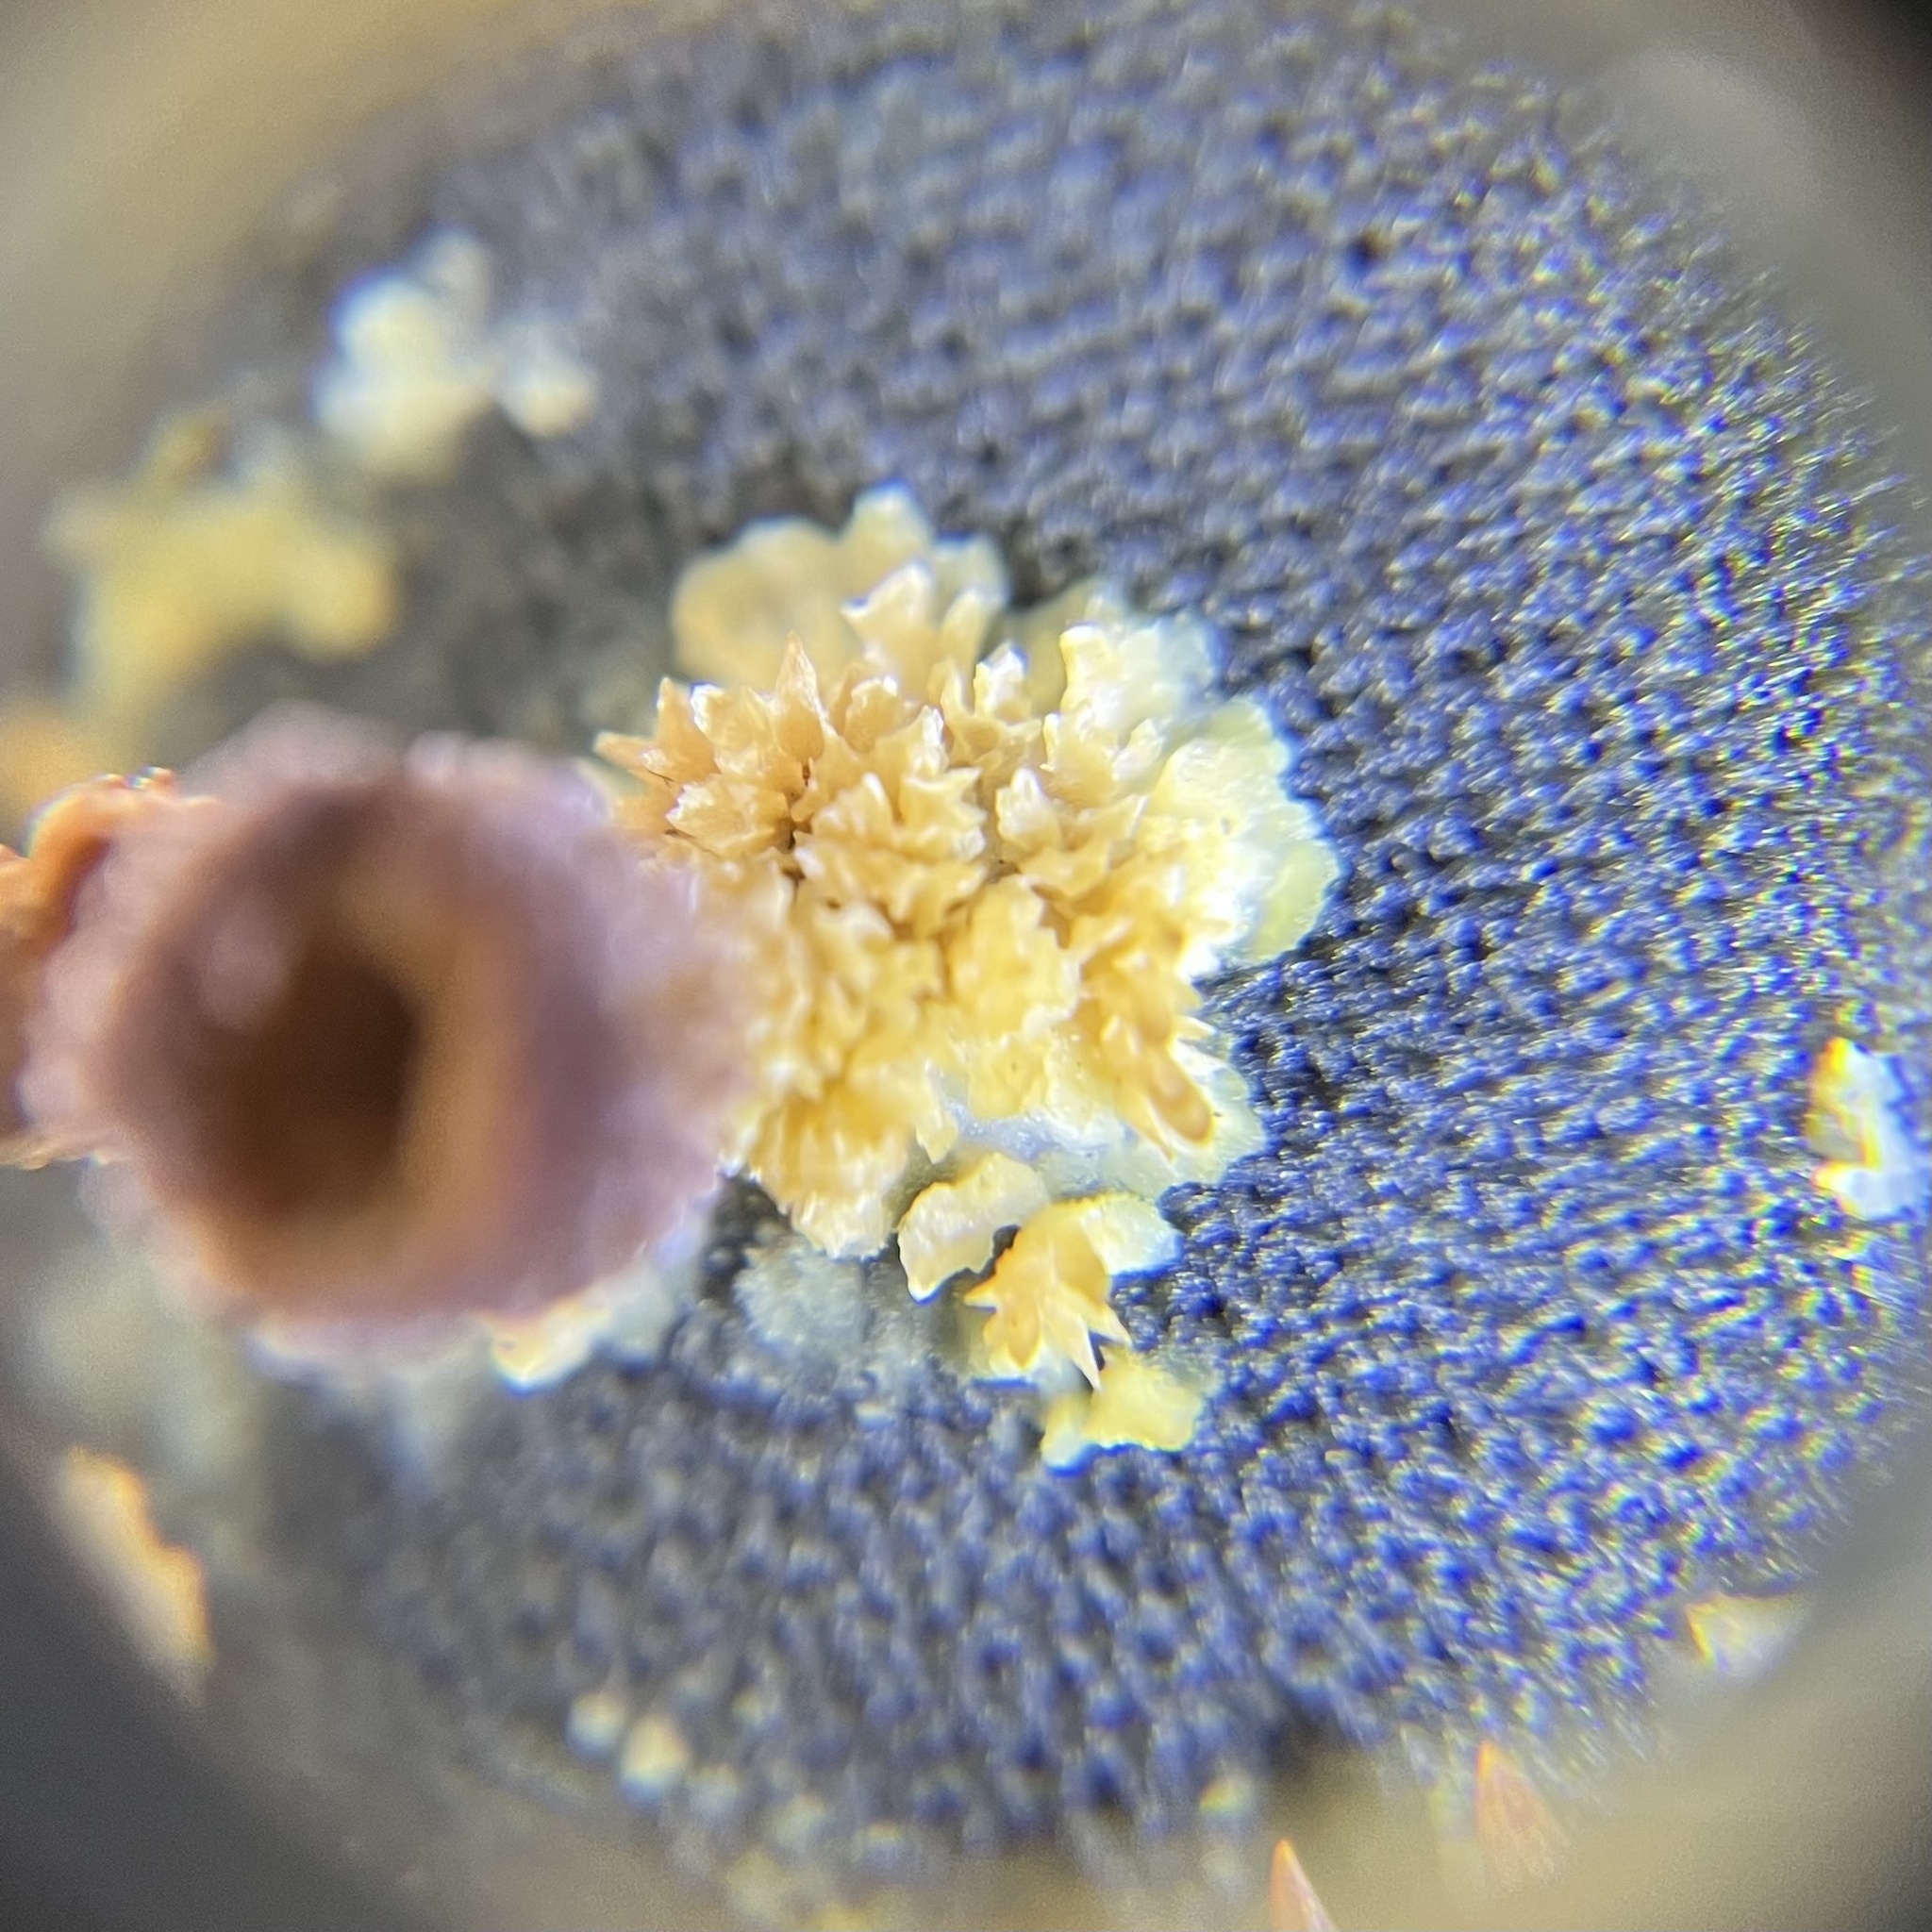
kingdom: Fungi
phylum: Basidiomycota
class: Agaricomycetes
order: Hymenochaetales
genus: Trichaptum
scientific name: Trichaptum biforme
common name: Violet-toothed polypore
